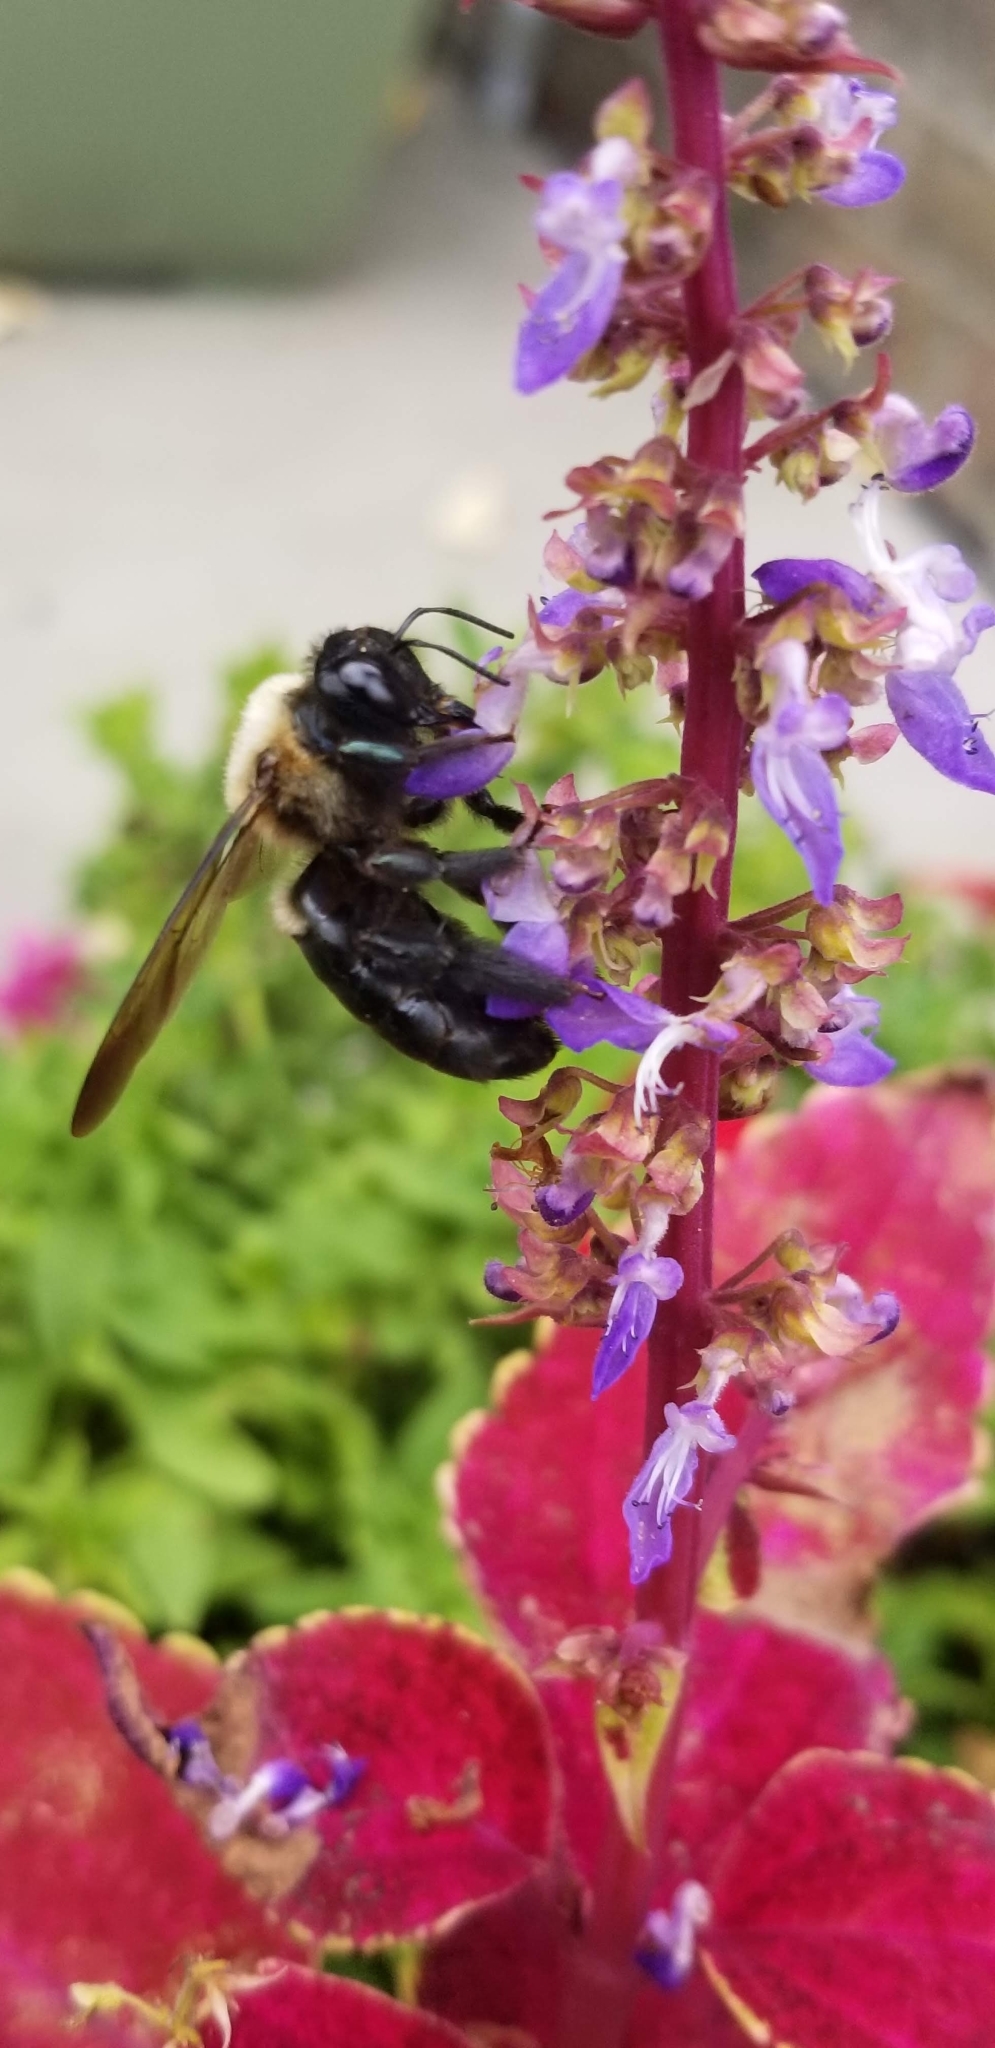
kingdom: Animalia
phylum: Arthropoda
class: Insecta
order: Hymenoptera
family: Apidae
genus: Xylocopa
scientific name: Xylocopa virginica
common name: Carpenter bee
